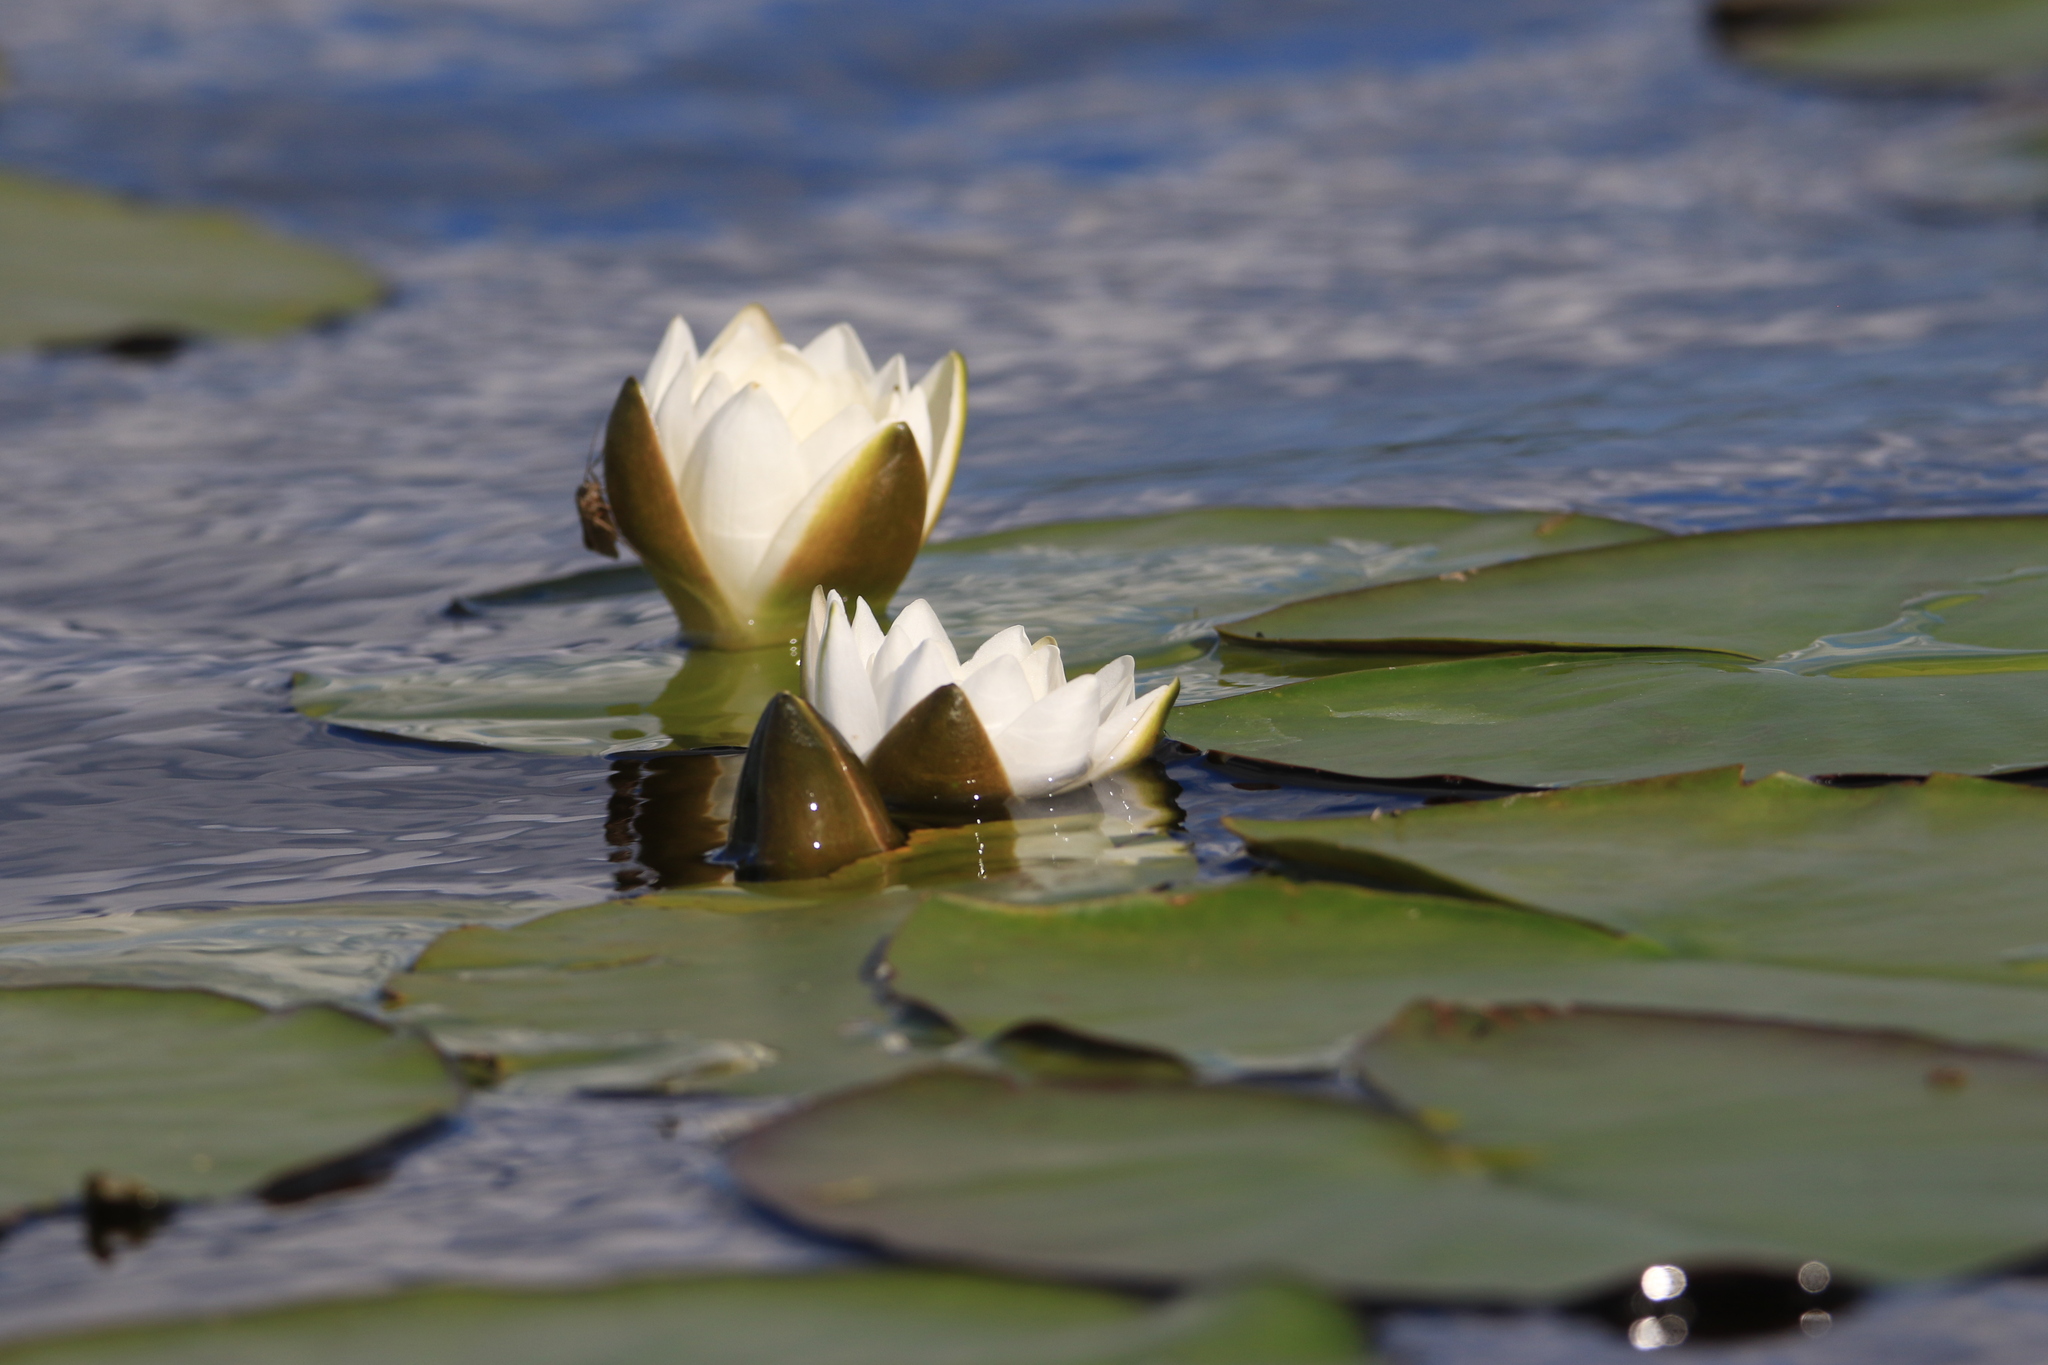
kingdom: Plantae
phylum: Tracheophyta
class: Magnoliopsida
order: Nymphaeales
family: Nymphaeaceae
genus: Nymphaea
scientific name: Nymphaea candida
